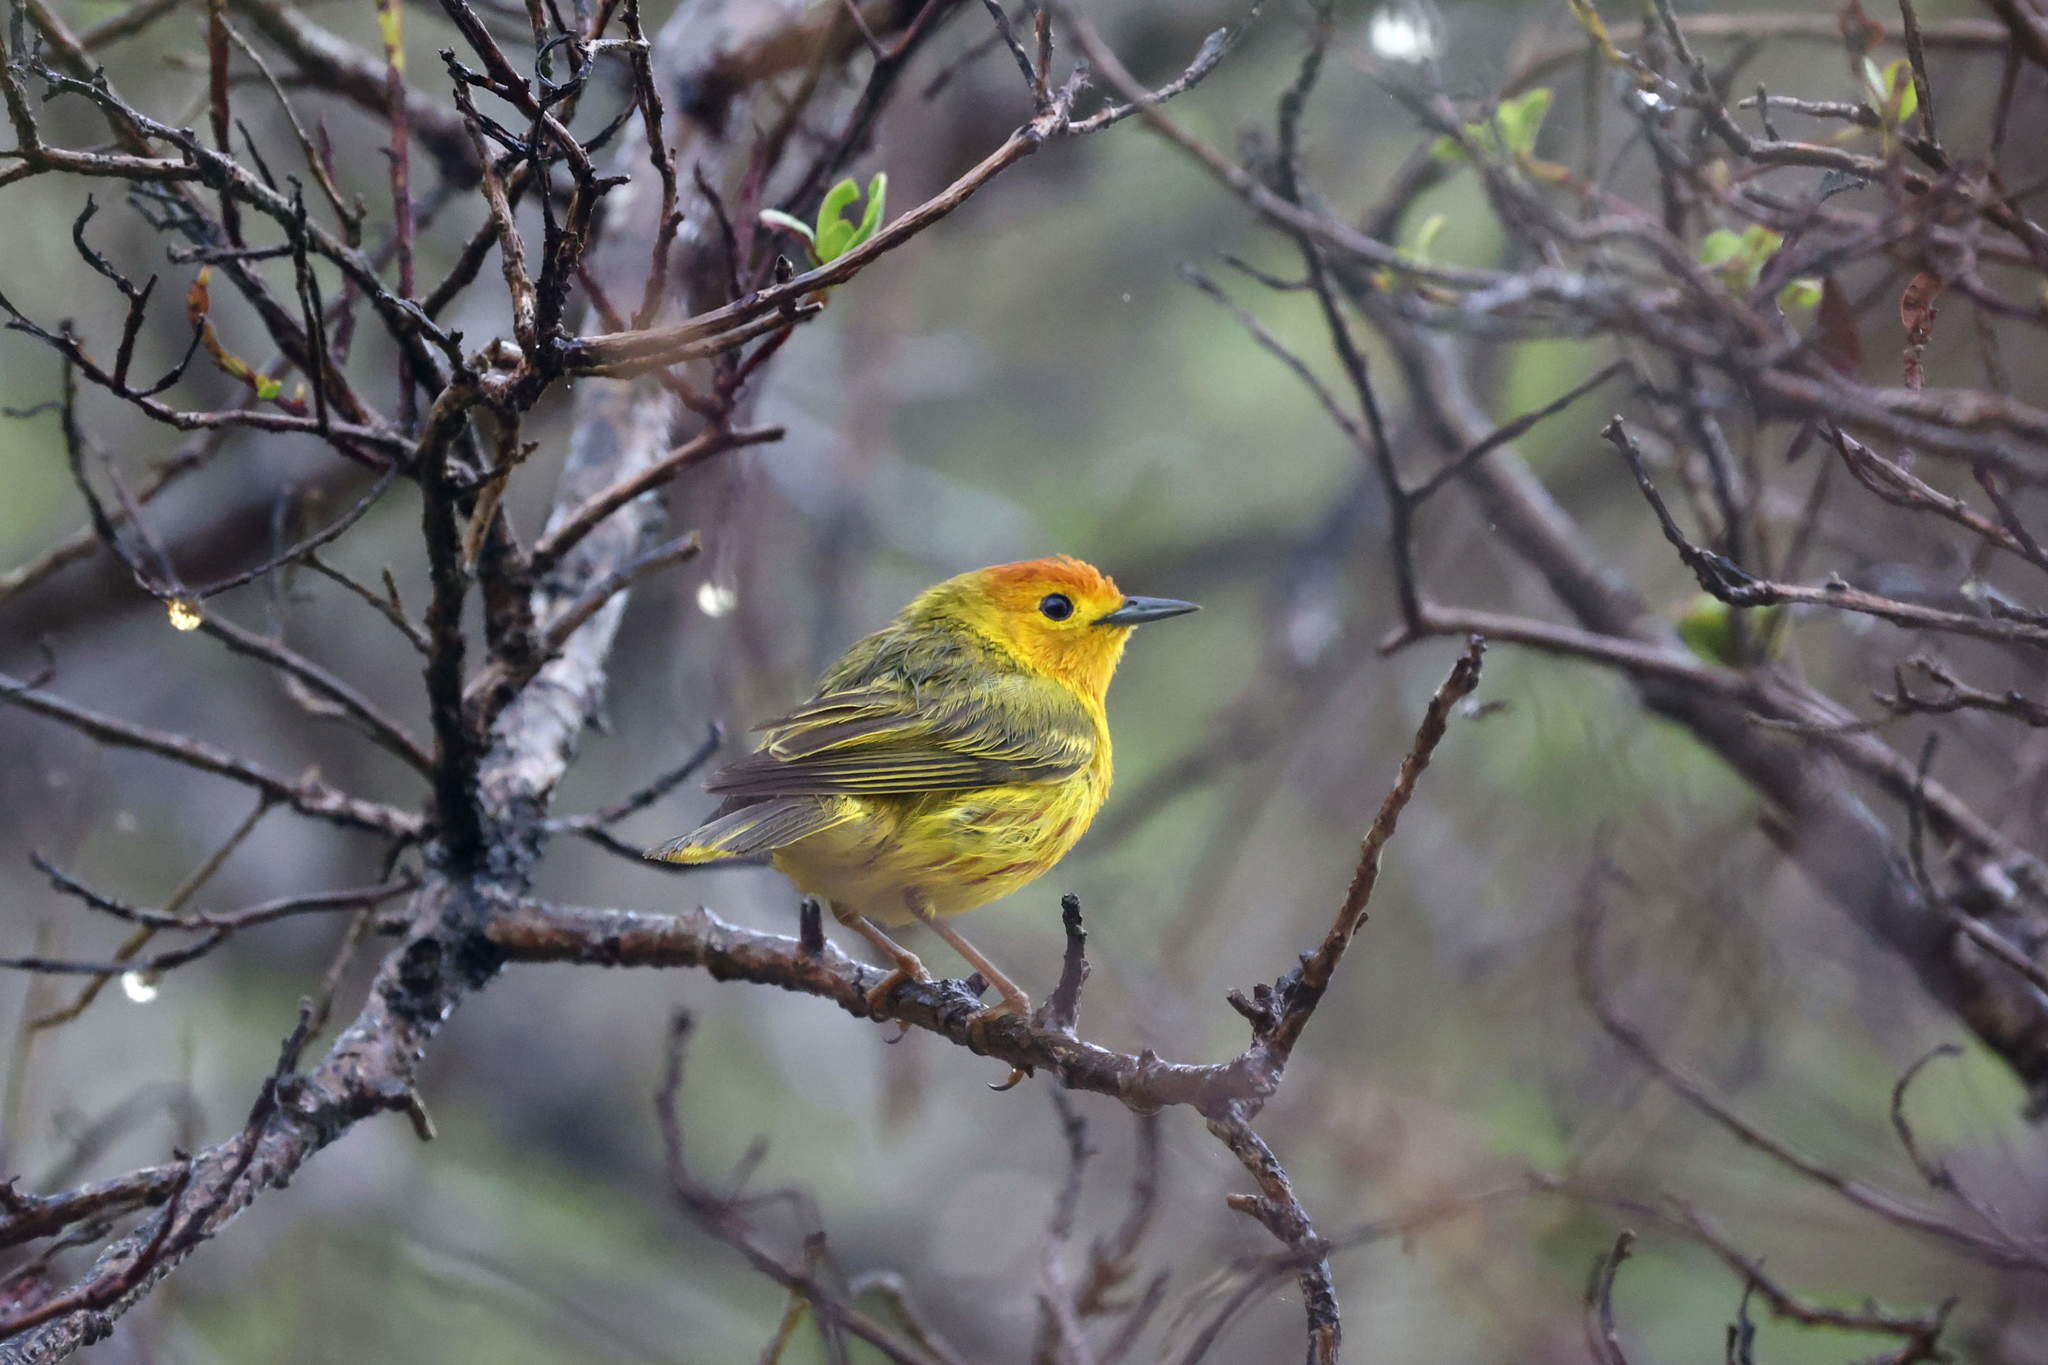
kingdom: Animalia
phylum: Chordata
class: Aves
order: Passeriformes
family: Parulidae
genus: Setophaga
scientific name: Setophaga petechia
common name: Yellow warbler
